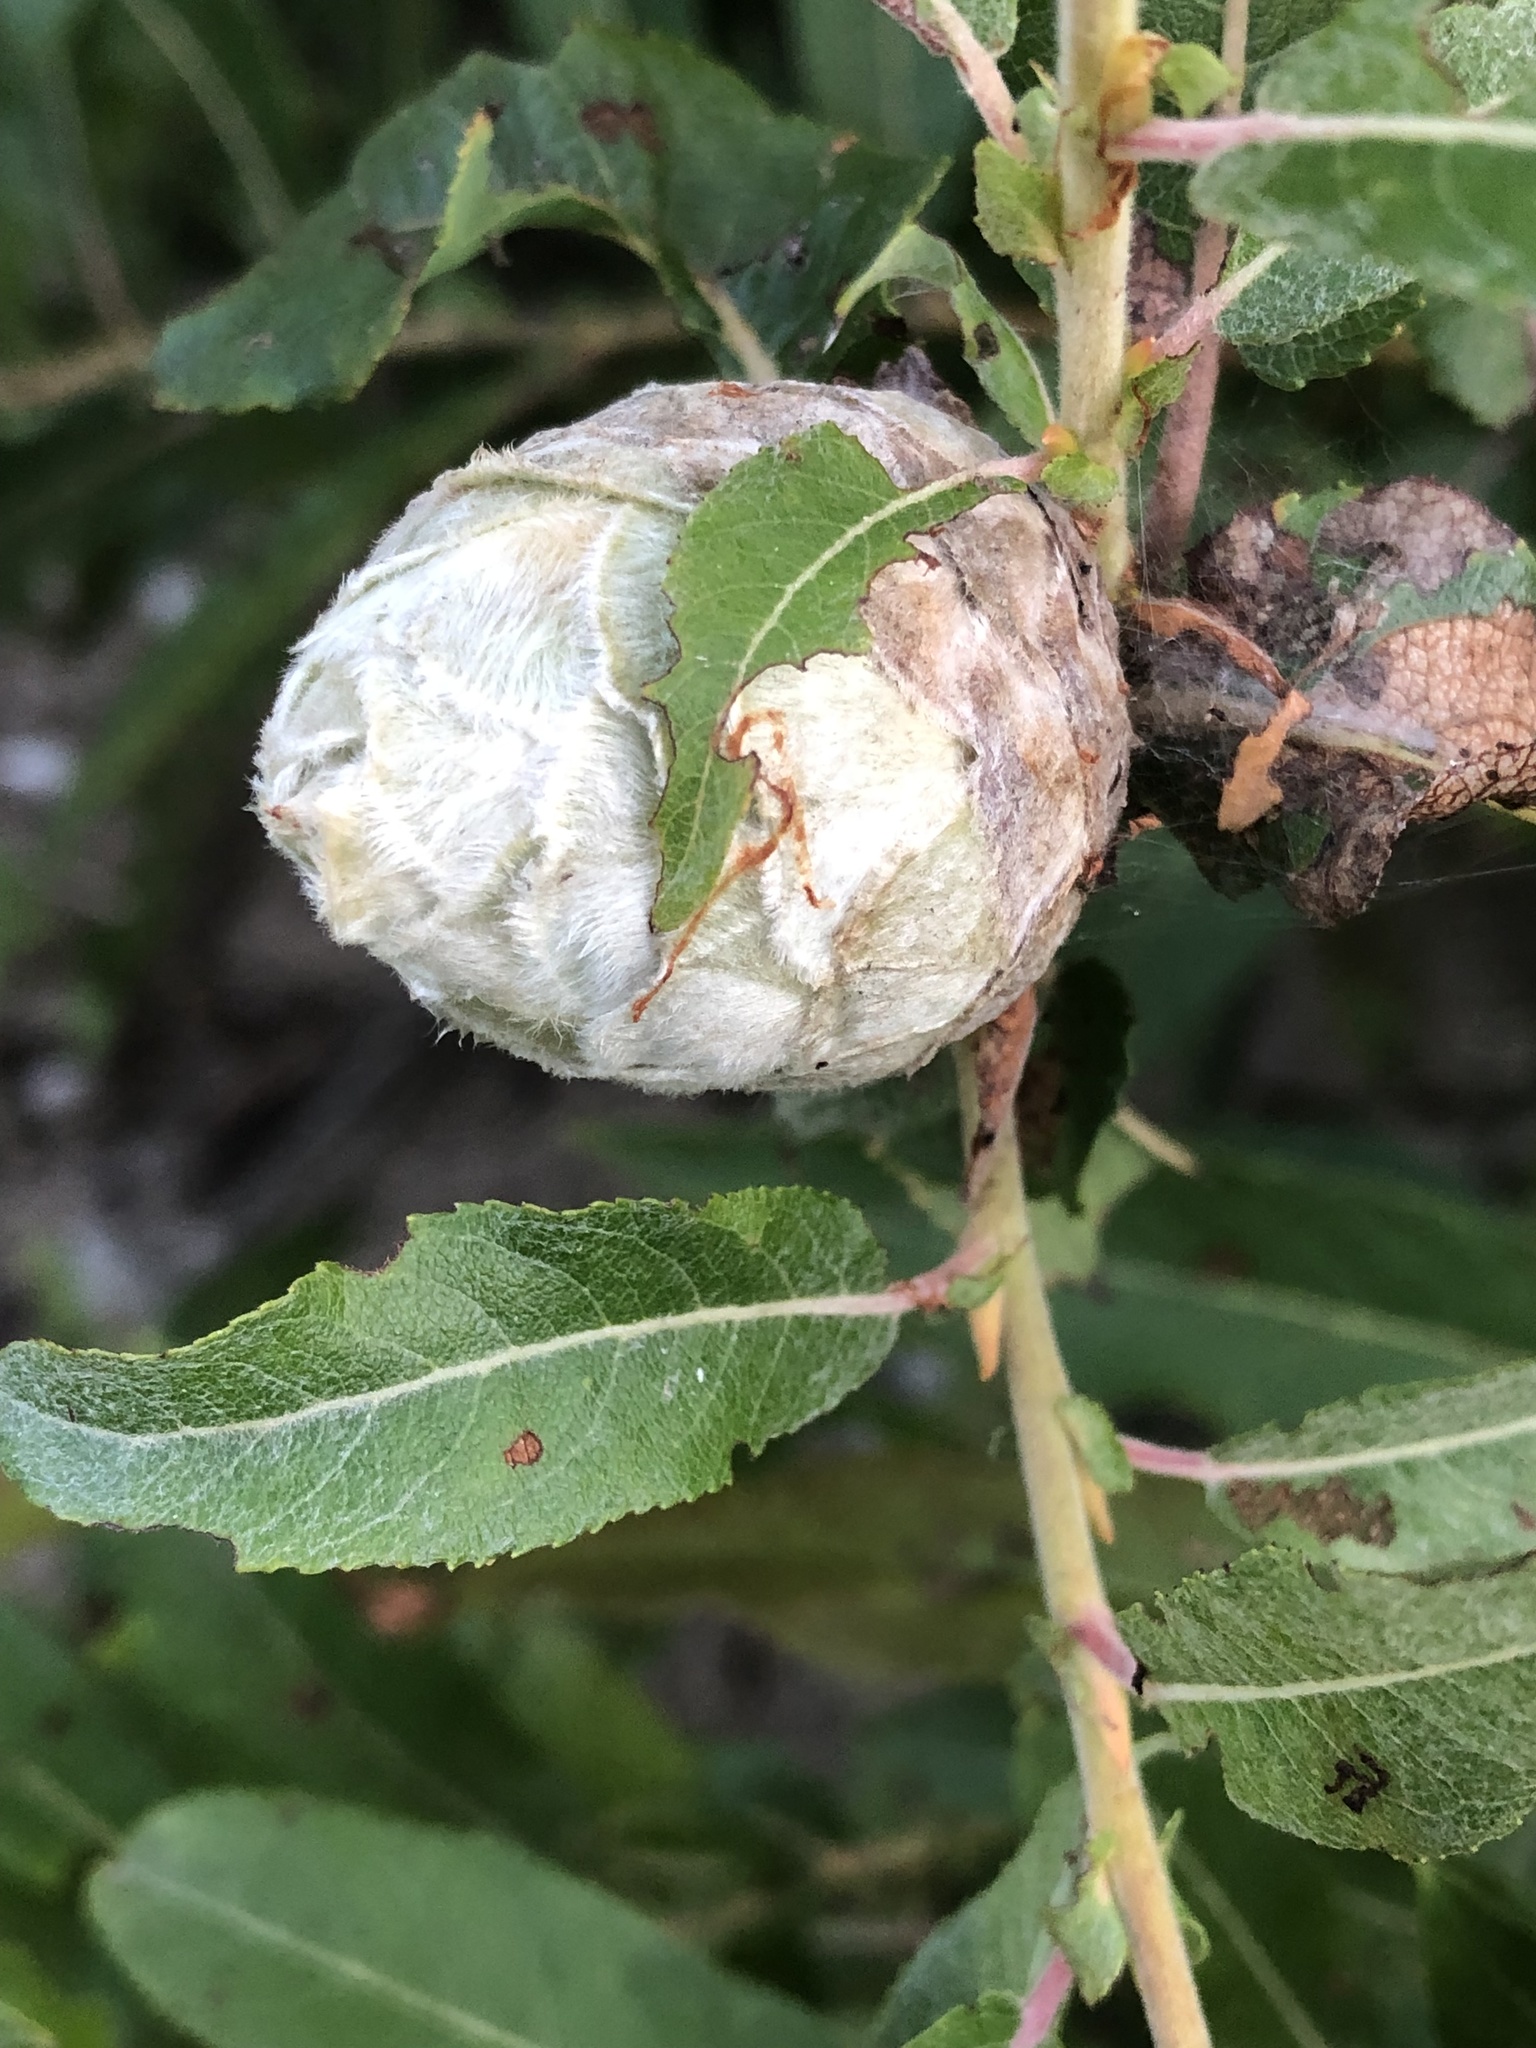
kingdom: Animalia
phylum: Arthropoda
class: Insecta
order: Diptera
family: Cecidomyiidae
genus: Rabdophaga
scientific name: Rabdophaga strobiloides
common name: Willow pinecone gall midge
